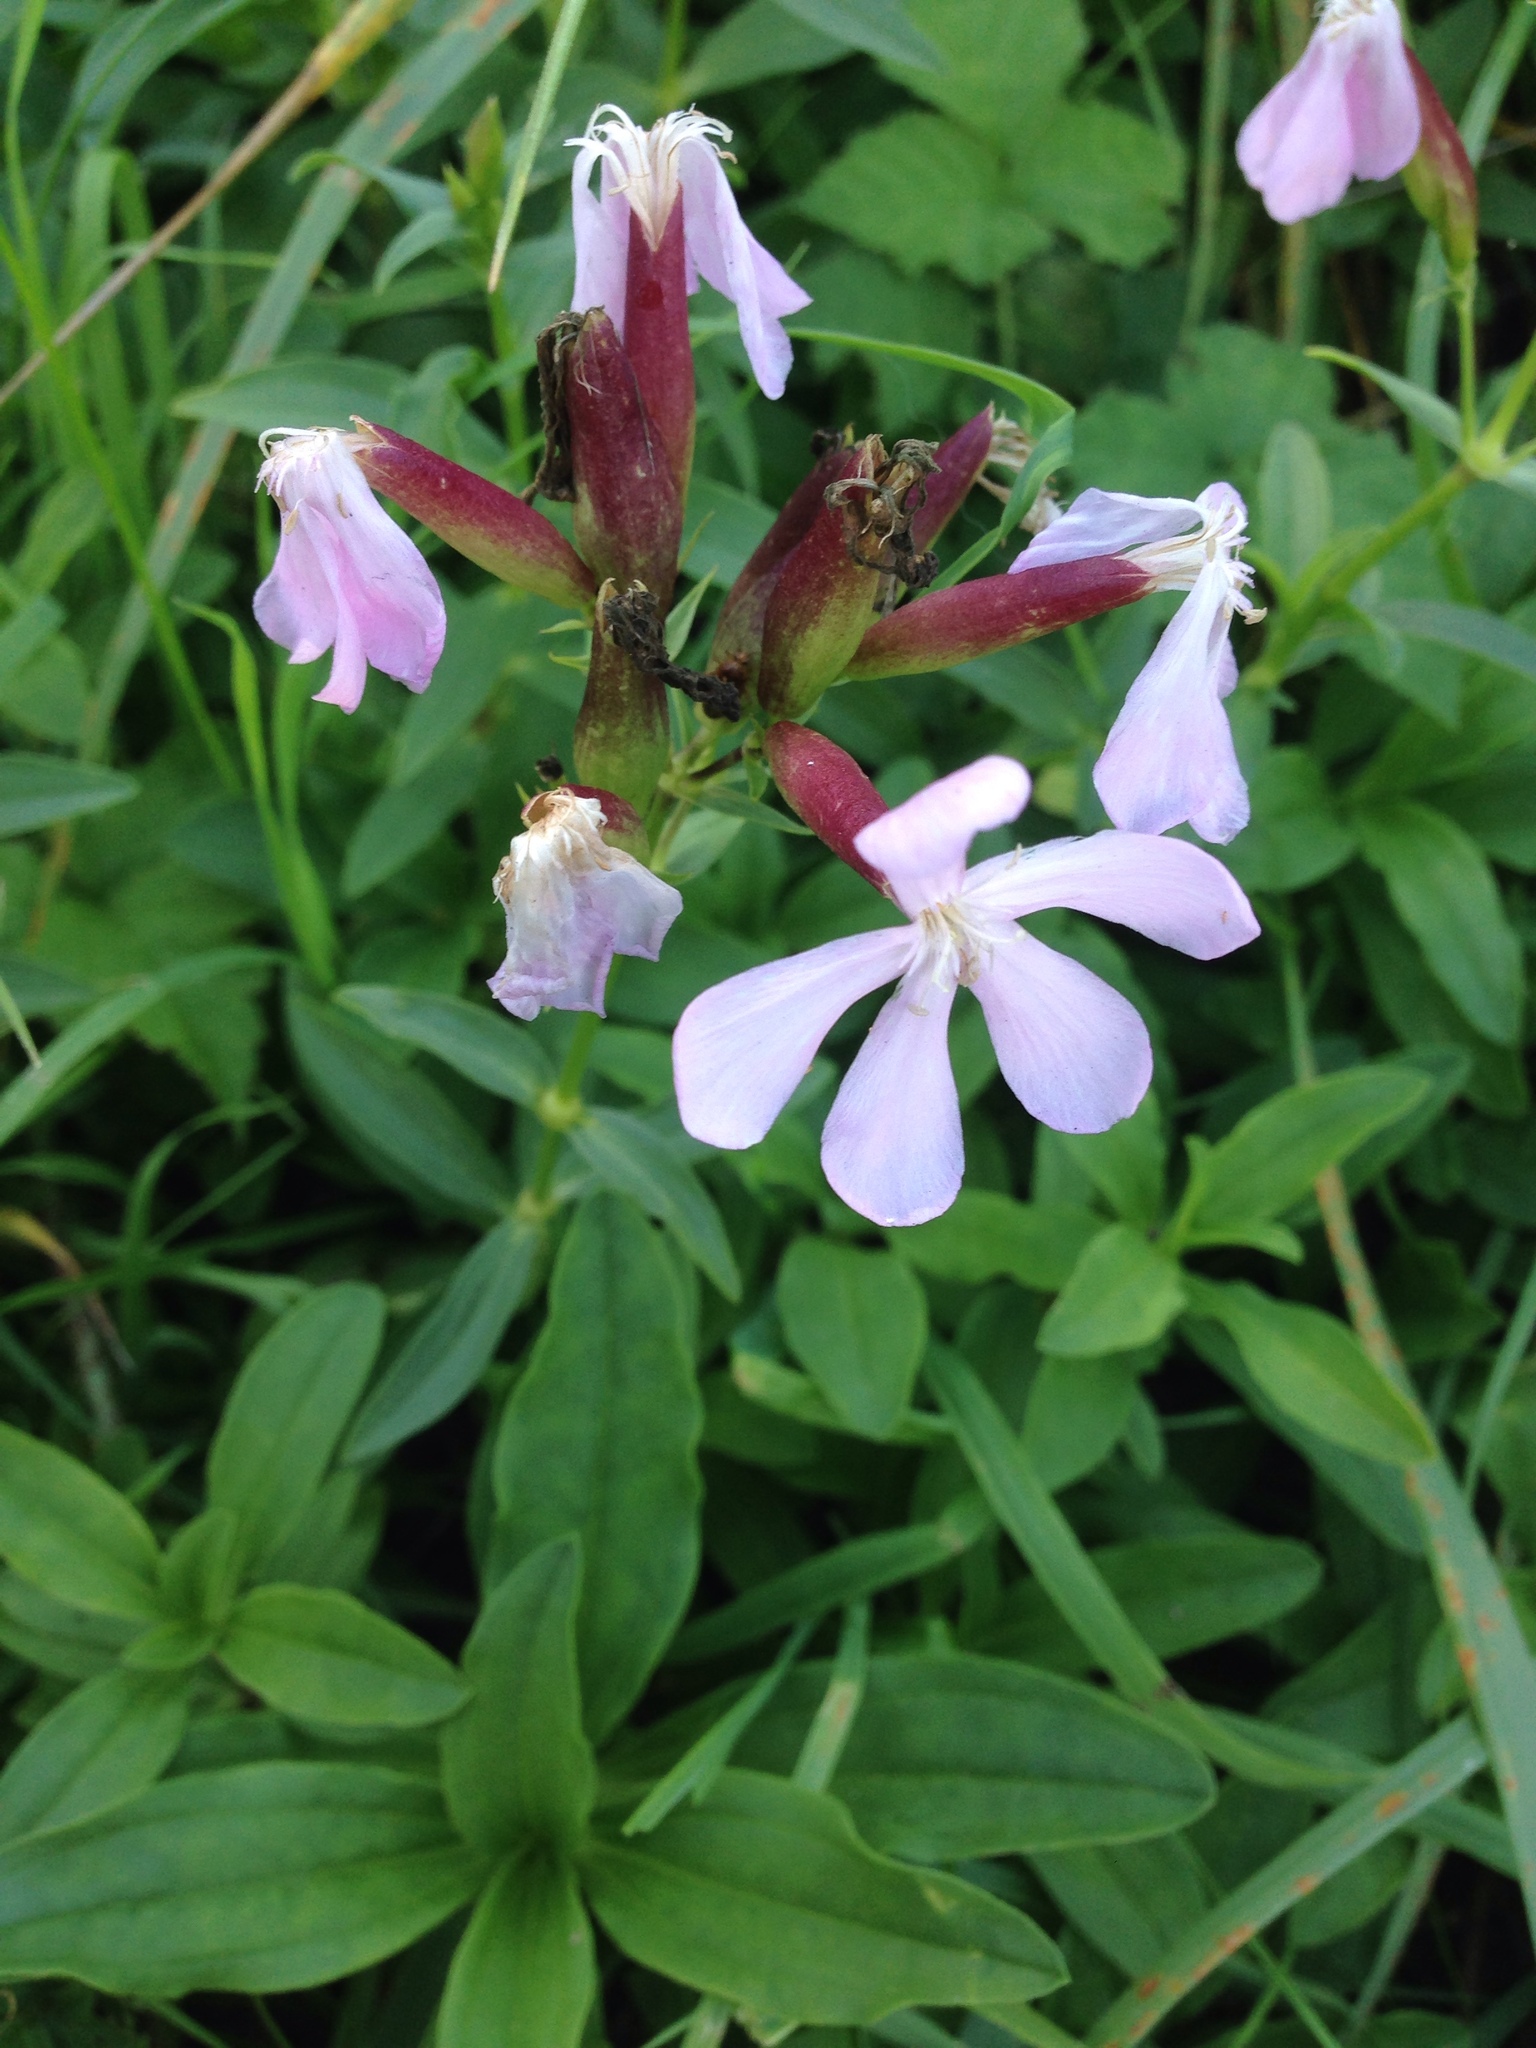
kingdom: Plantae
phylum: Tracheophyta
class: Magnoliopsida
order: Caryophyllales
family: Caryophyllaceae
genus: Saponaria
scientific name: Saponaria officinalis
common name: Soapwort
